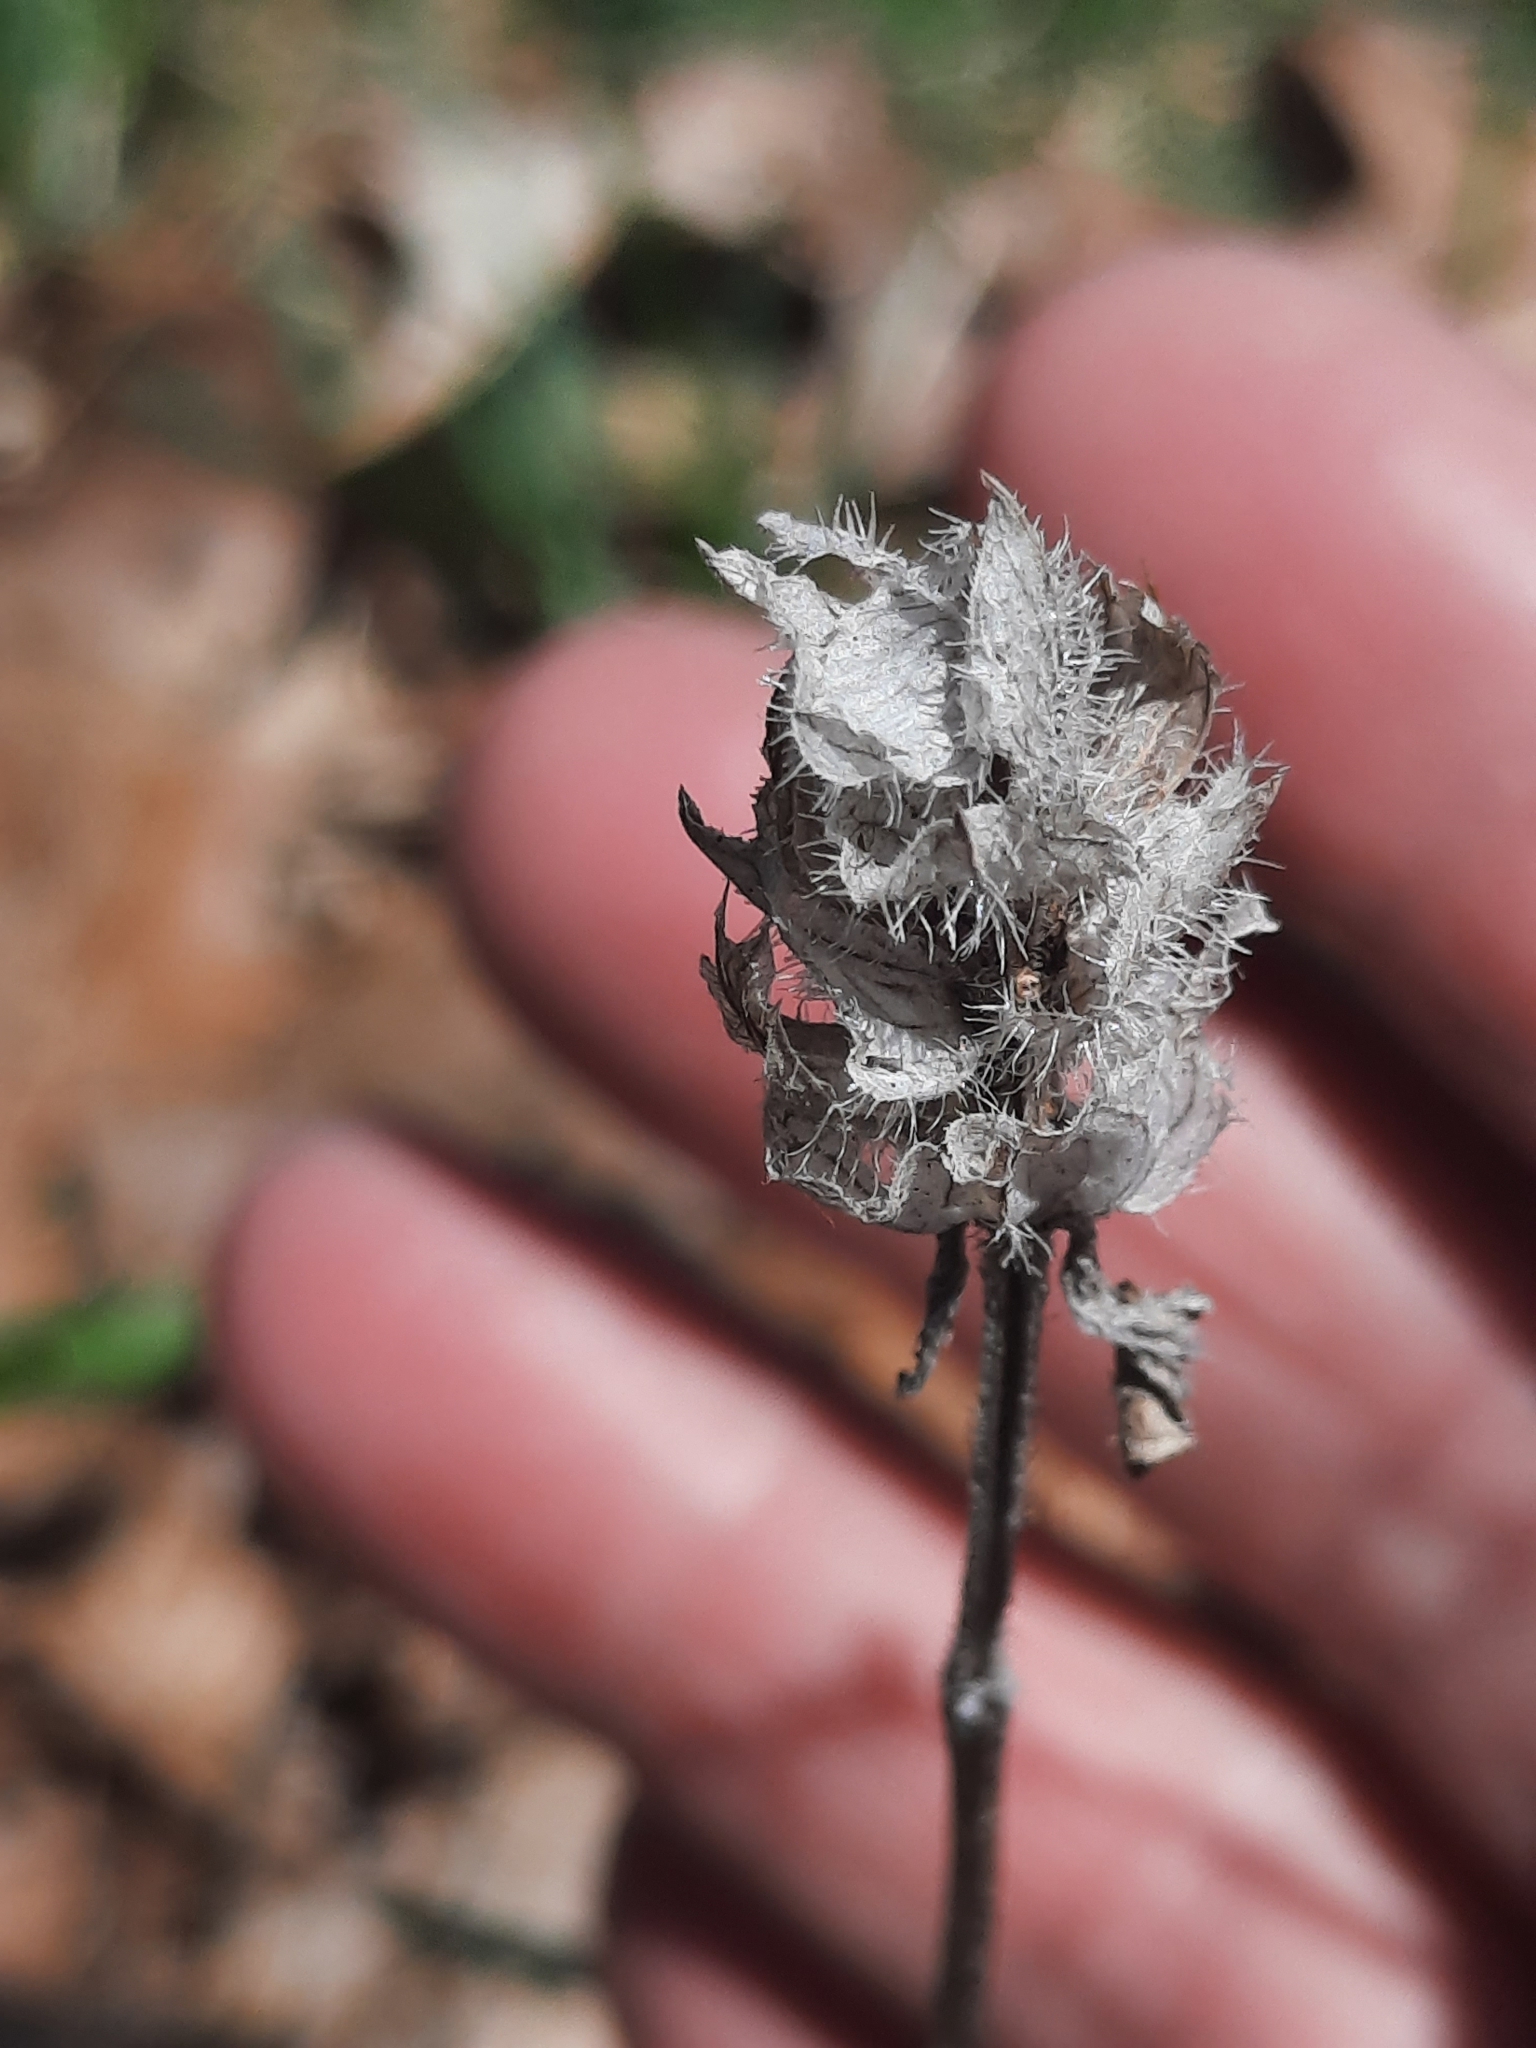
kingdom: Plantae
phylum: Tracheophyta
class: Magnoliopsida
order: Lamiales
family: Lamiaceae
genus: Prunella
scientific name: Prunella vulgaris
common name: Heal-all
